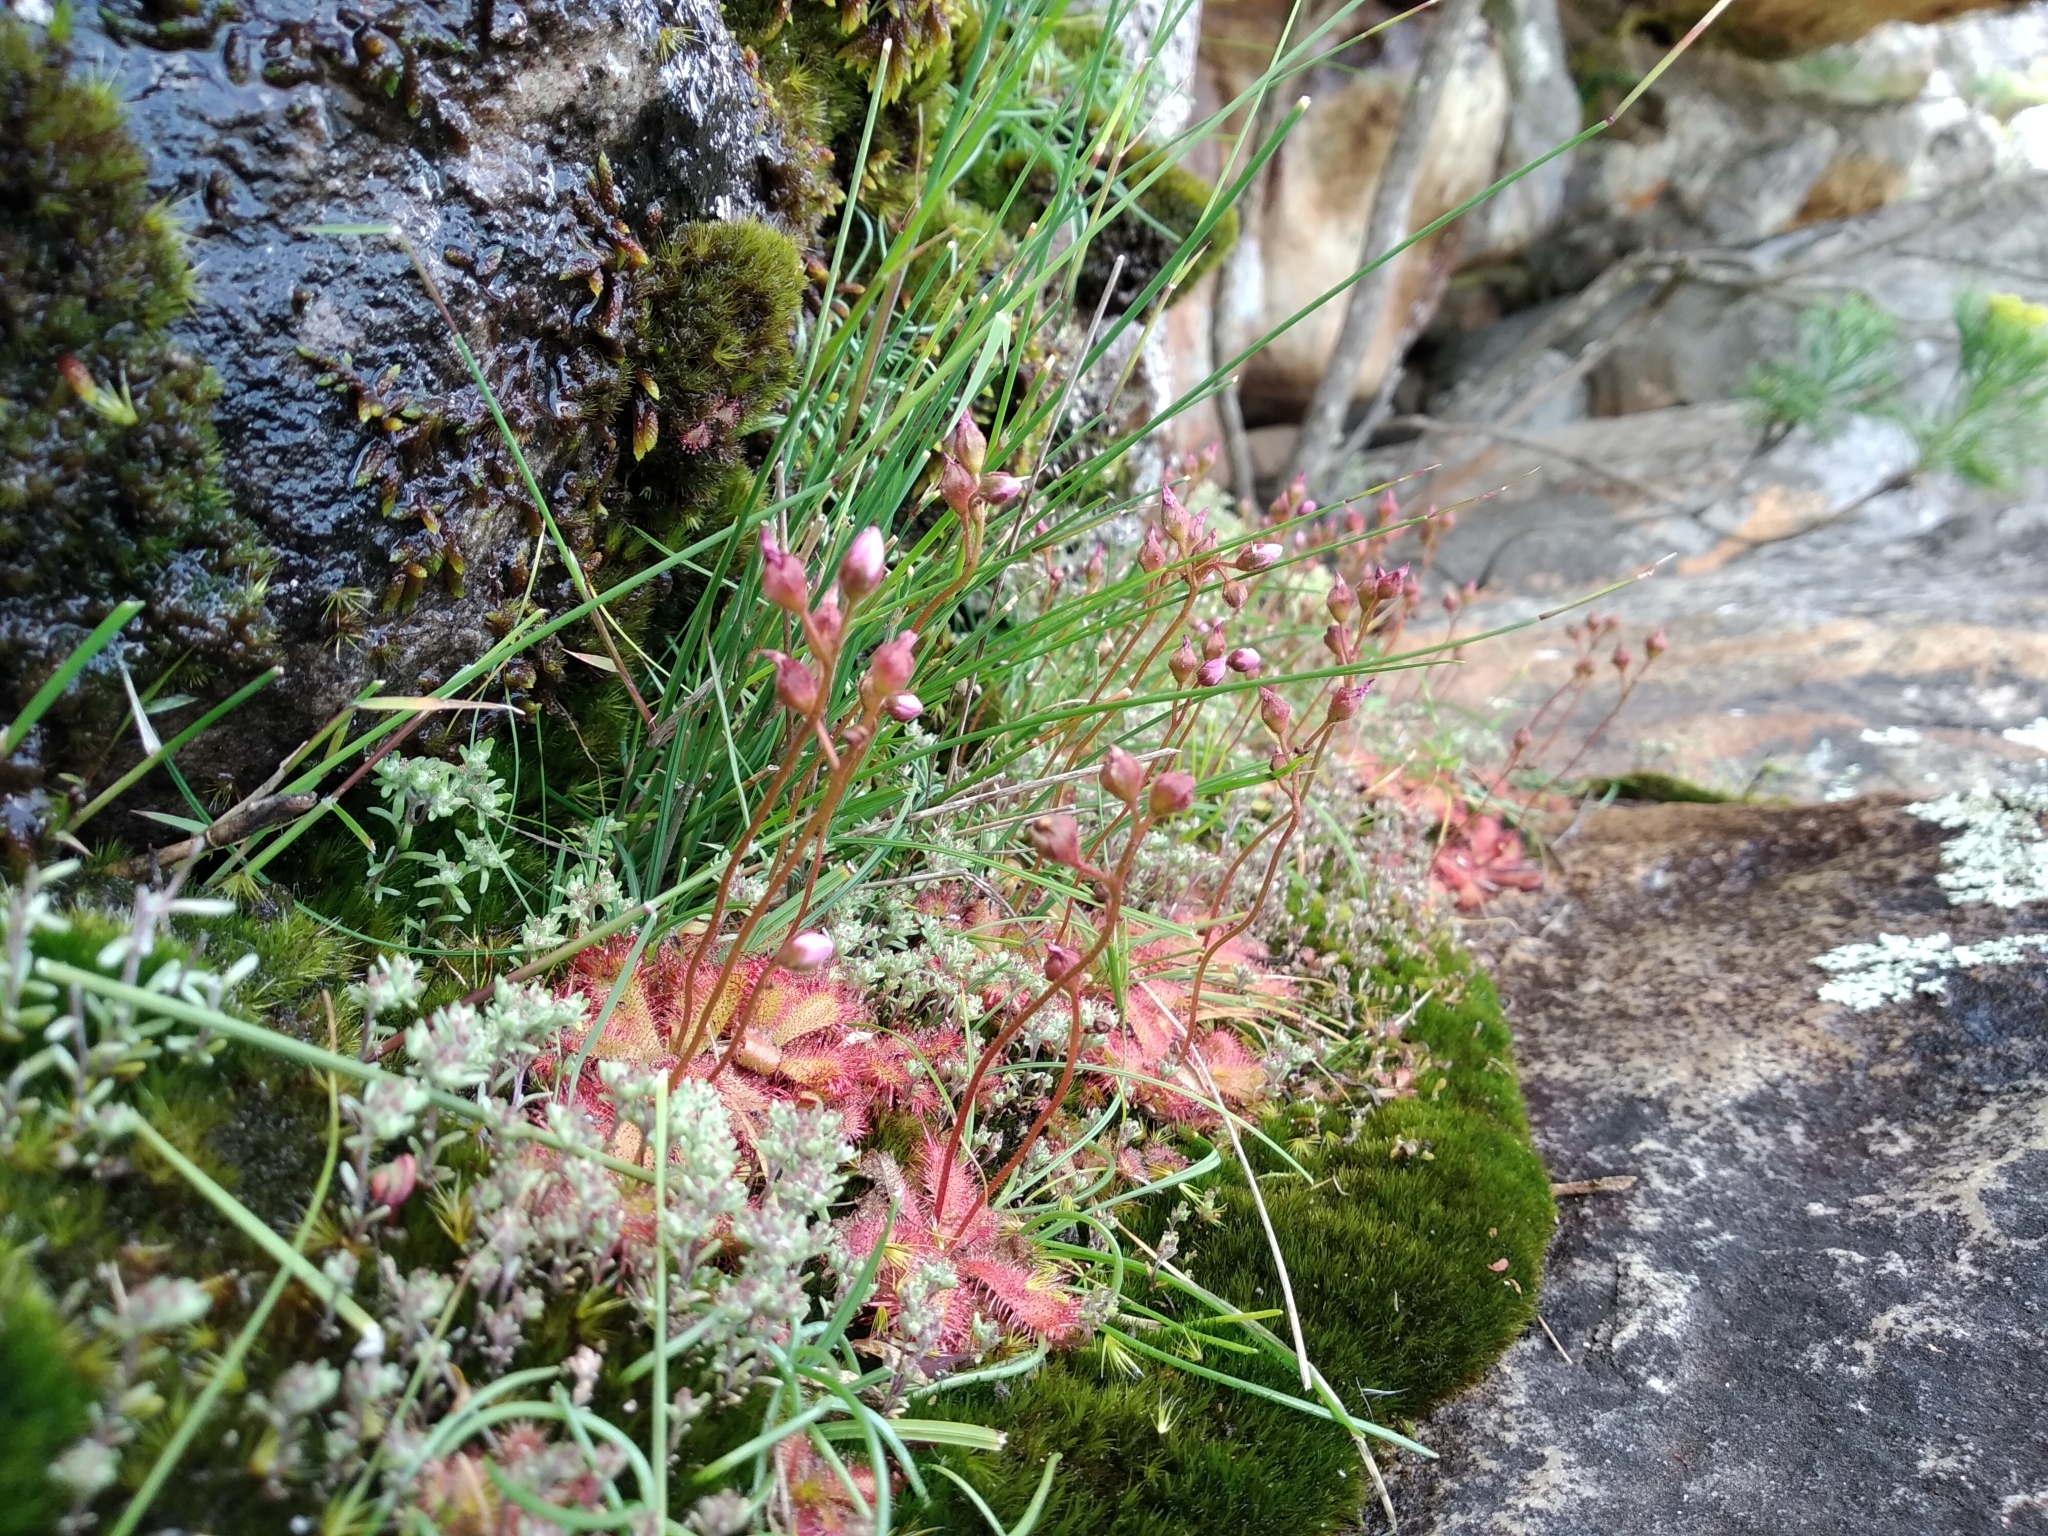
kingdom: Plantae
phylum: Tracheophyta
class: Magnoliopsida
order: Caryophyllales
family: Droseraceae
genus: Drosera
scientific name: Drosera trinervia
